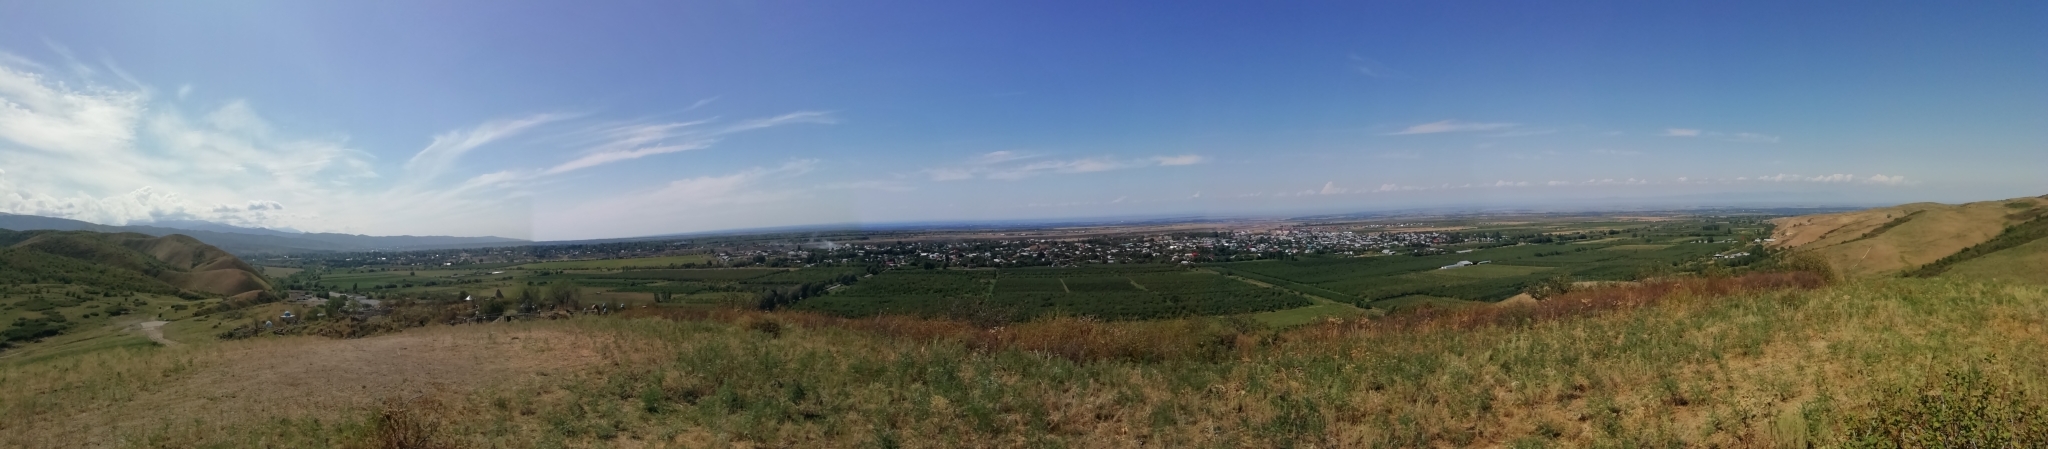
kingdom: Animalia
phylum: Arthropoda
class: Insecta
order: Neuroptera
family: Myrmeleontidae
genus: Myrmecaelurus
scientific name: Myrmecaelurus trigrammus
